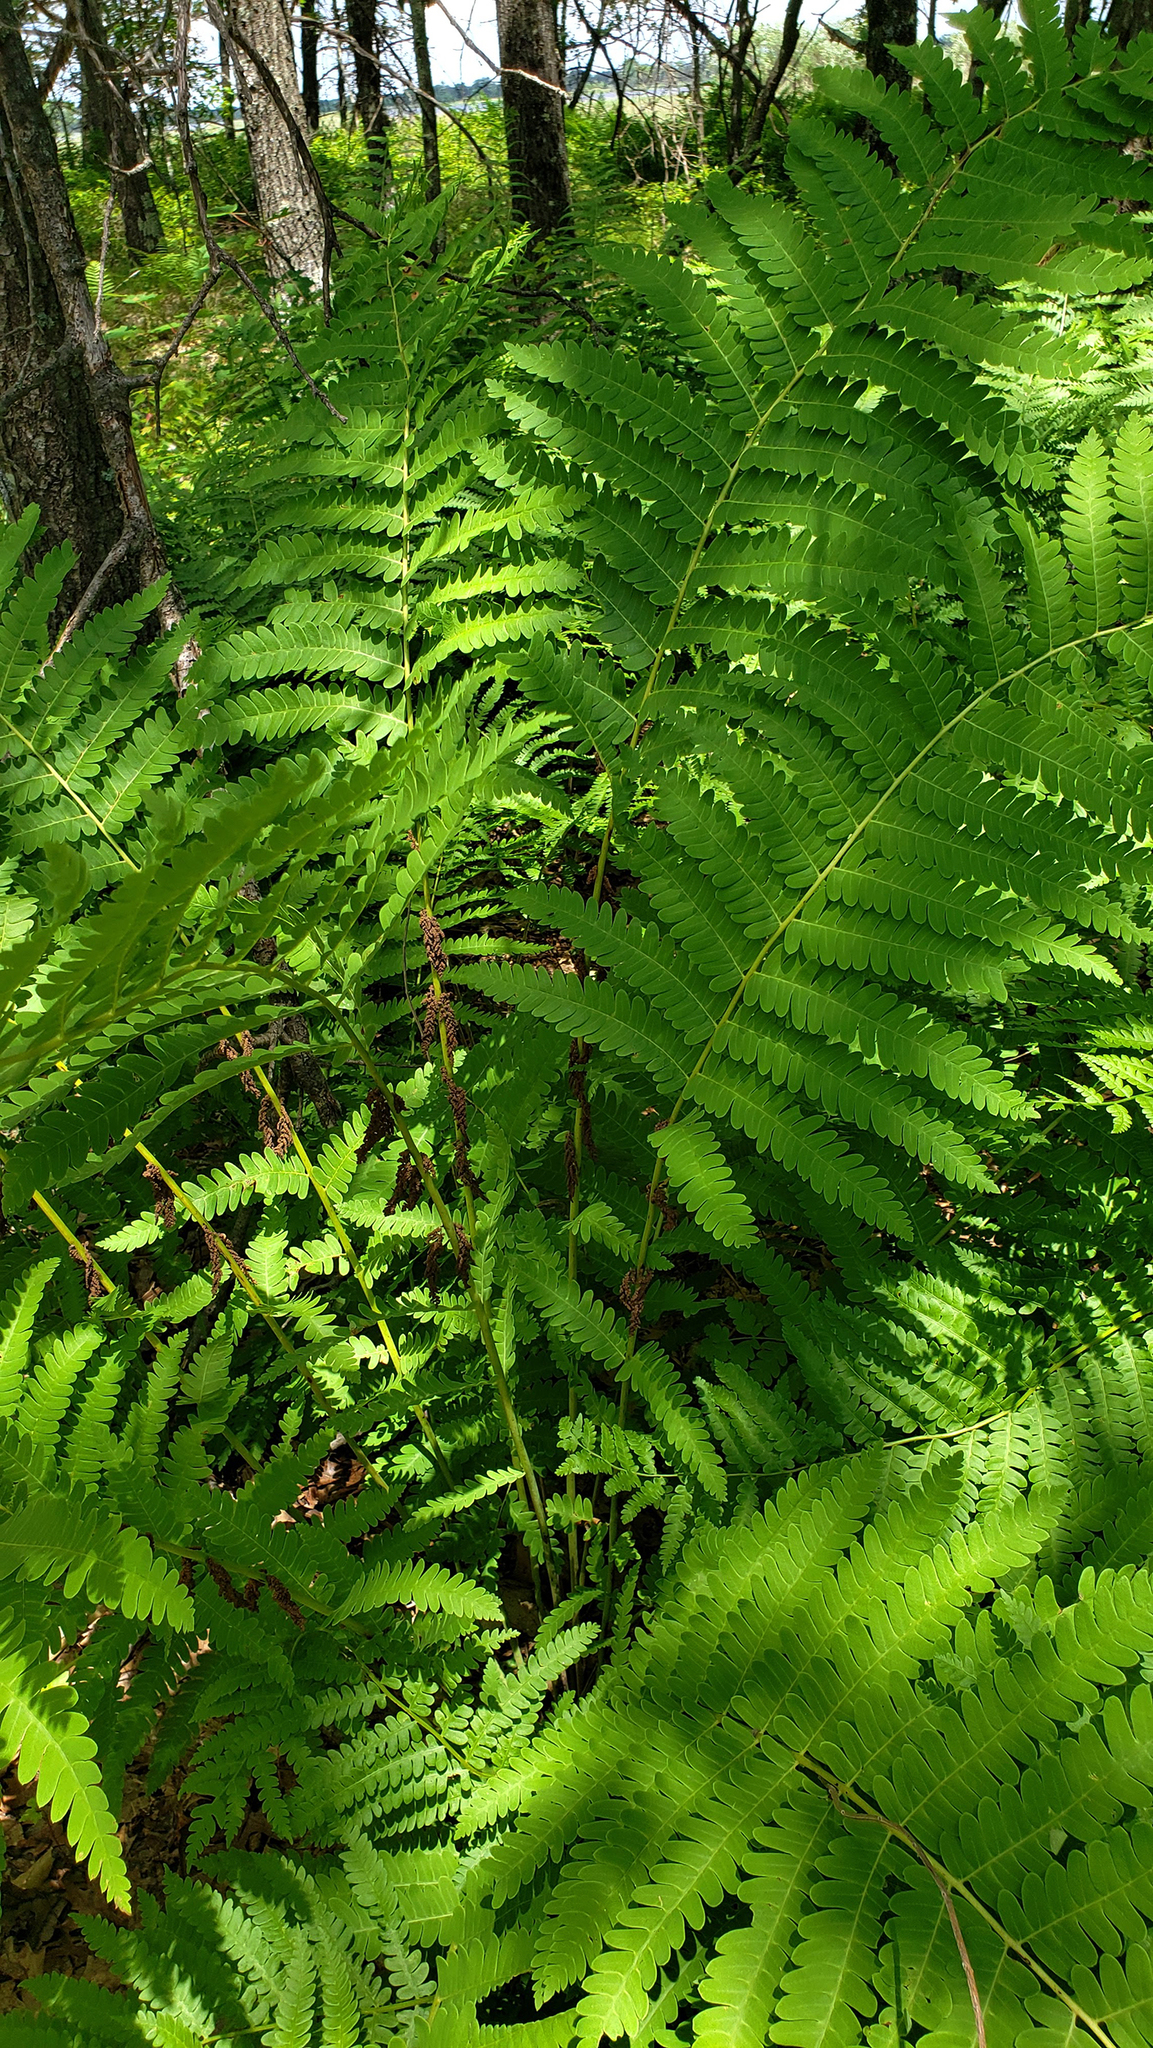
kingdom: Plantae
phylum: Tracheophyta
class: Polypodiopsida
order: Osmundales
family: Osmundaceae
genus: Claytosmunda
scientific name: Claytosmunda claytoniana
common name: Clayton's fern
